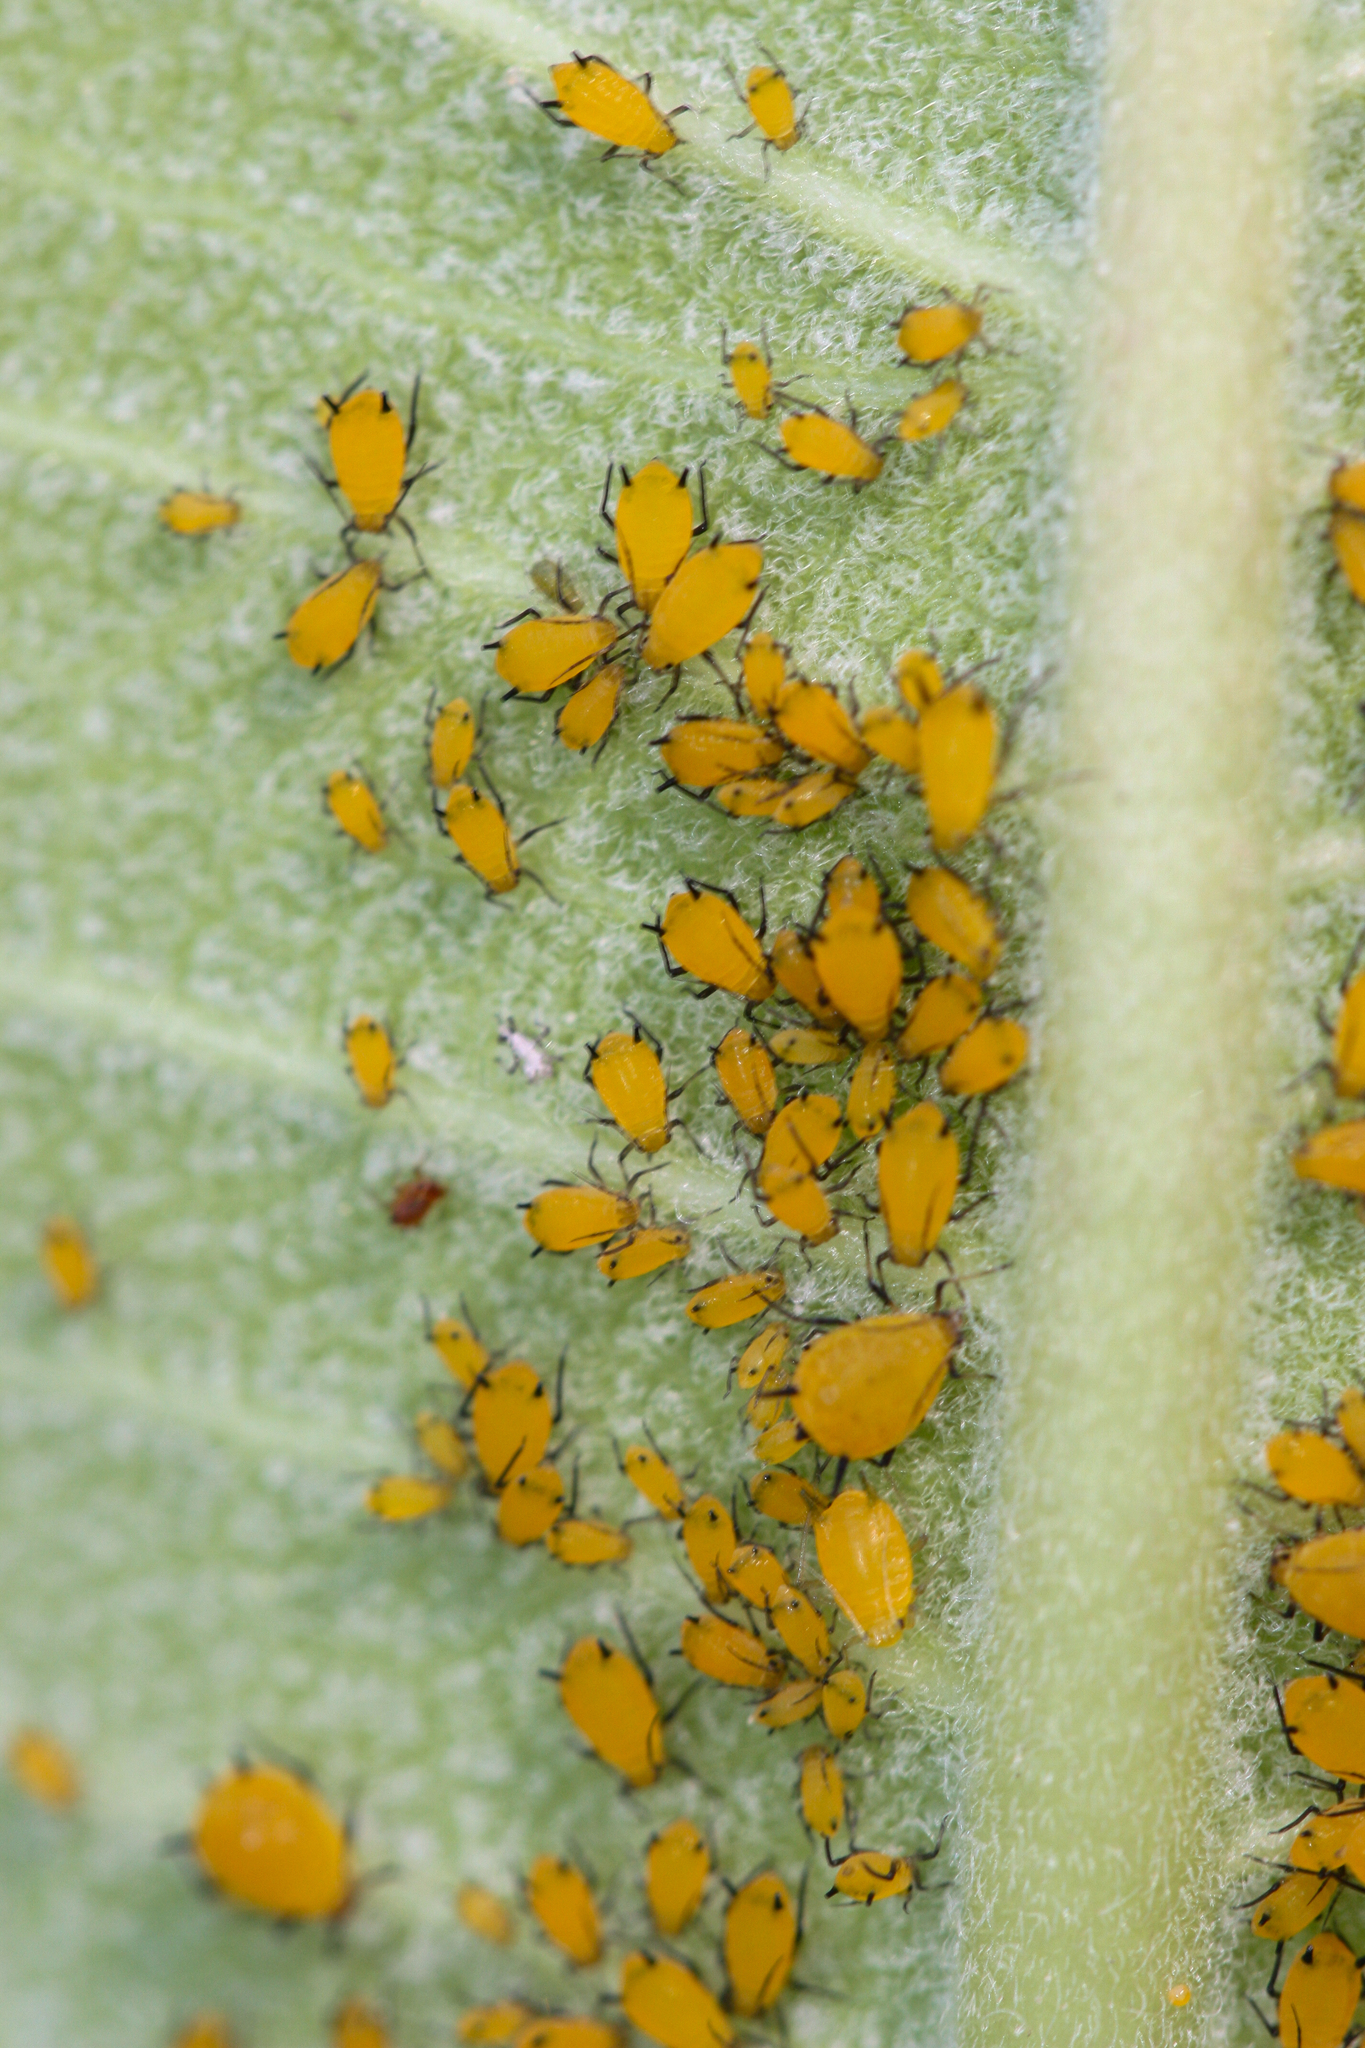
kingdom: Animalia
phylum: Arthropoda
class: Insecta
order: Hemiptera
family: Aphididae
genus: Aphis
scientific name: Aphis nerii
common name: Oleander aphid
